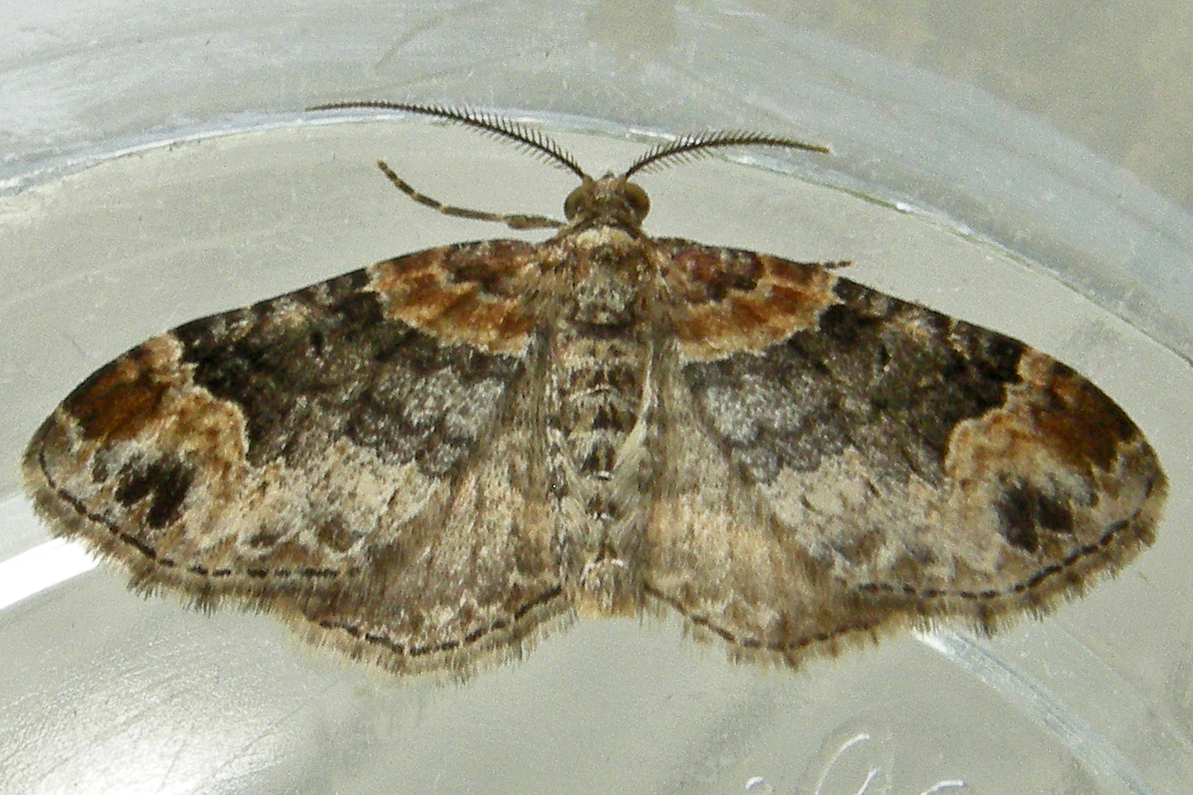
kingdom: Animalia
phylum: Arthropoda
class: Insecta
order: Lepidoptera
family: Geometridae
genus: Xanthorhoe
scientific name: Xanthorhoe ferrugata
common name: Dark-barred twin-spot carpet
